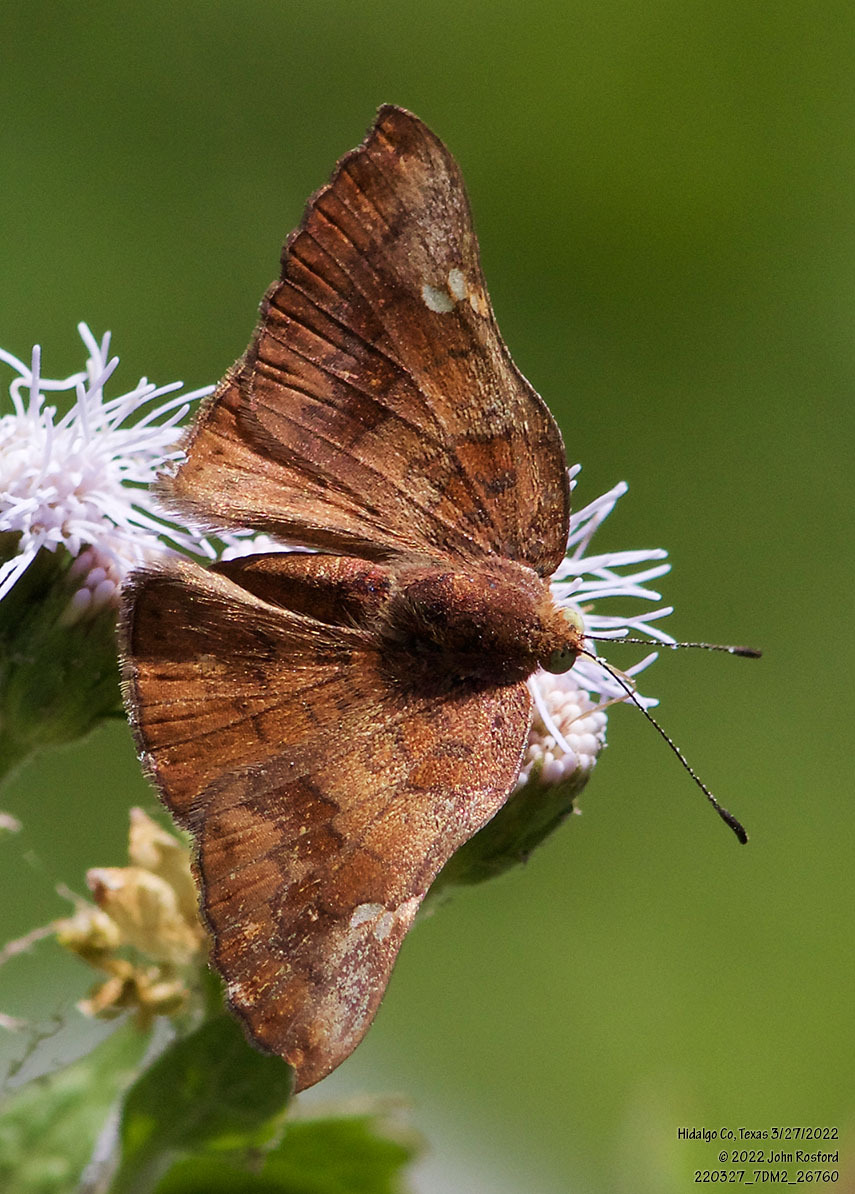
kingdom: Animalia
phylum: Arthropoda
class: Insecta
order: Lepidoptera
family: Riodinidae
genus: Curvie
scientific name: Curvie emesia
